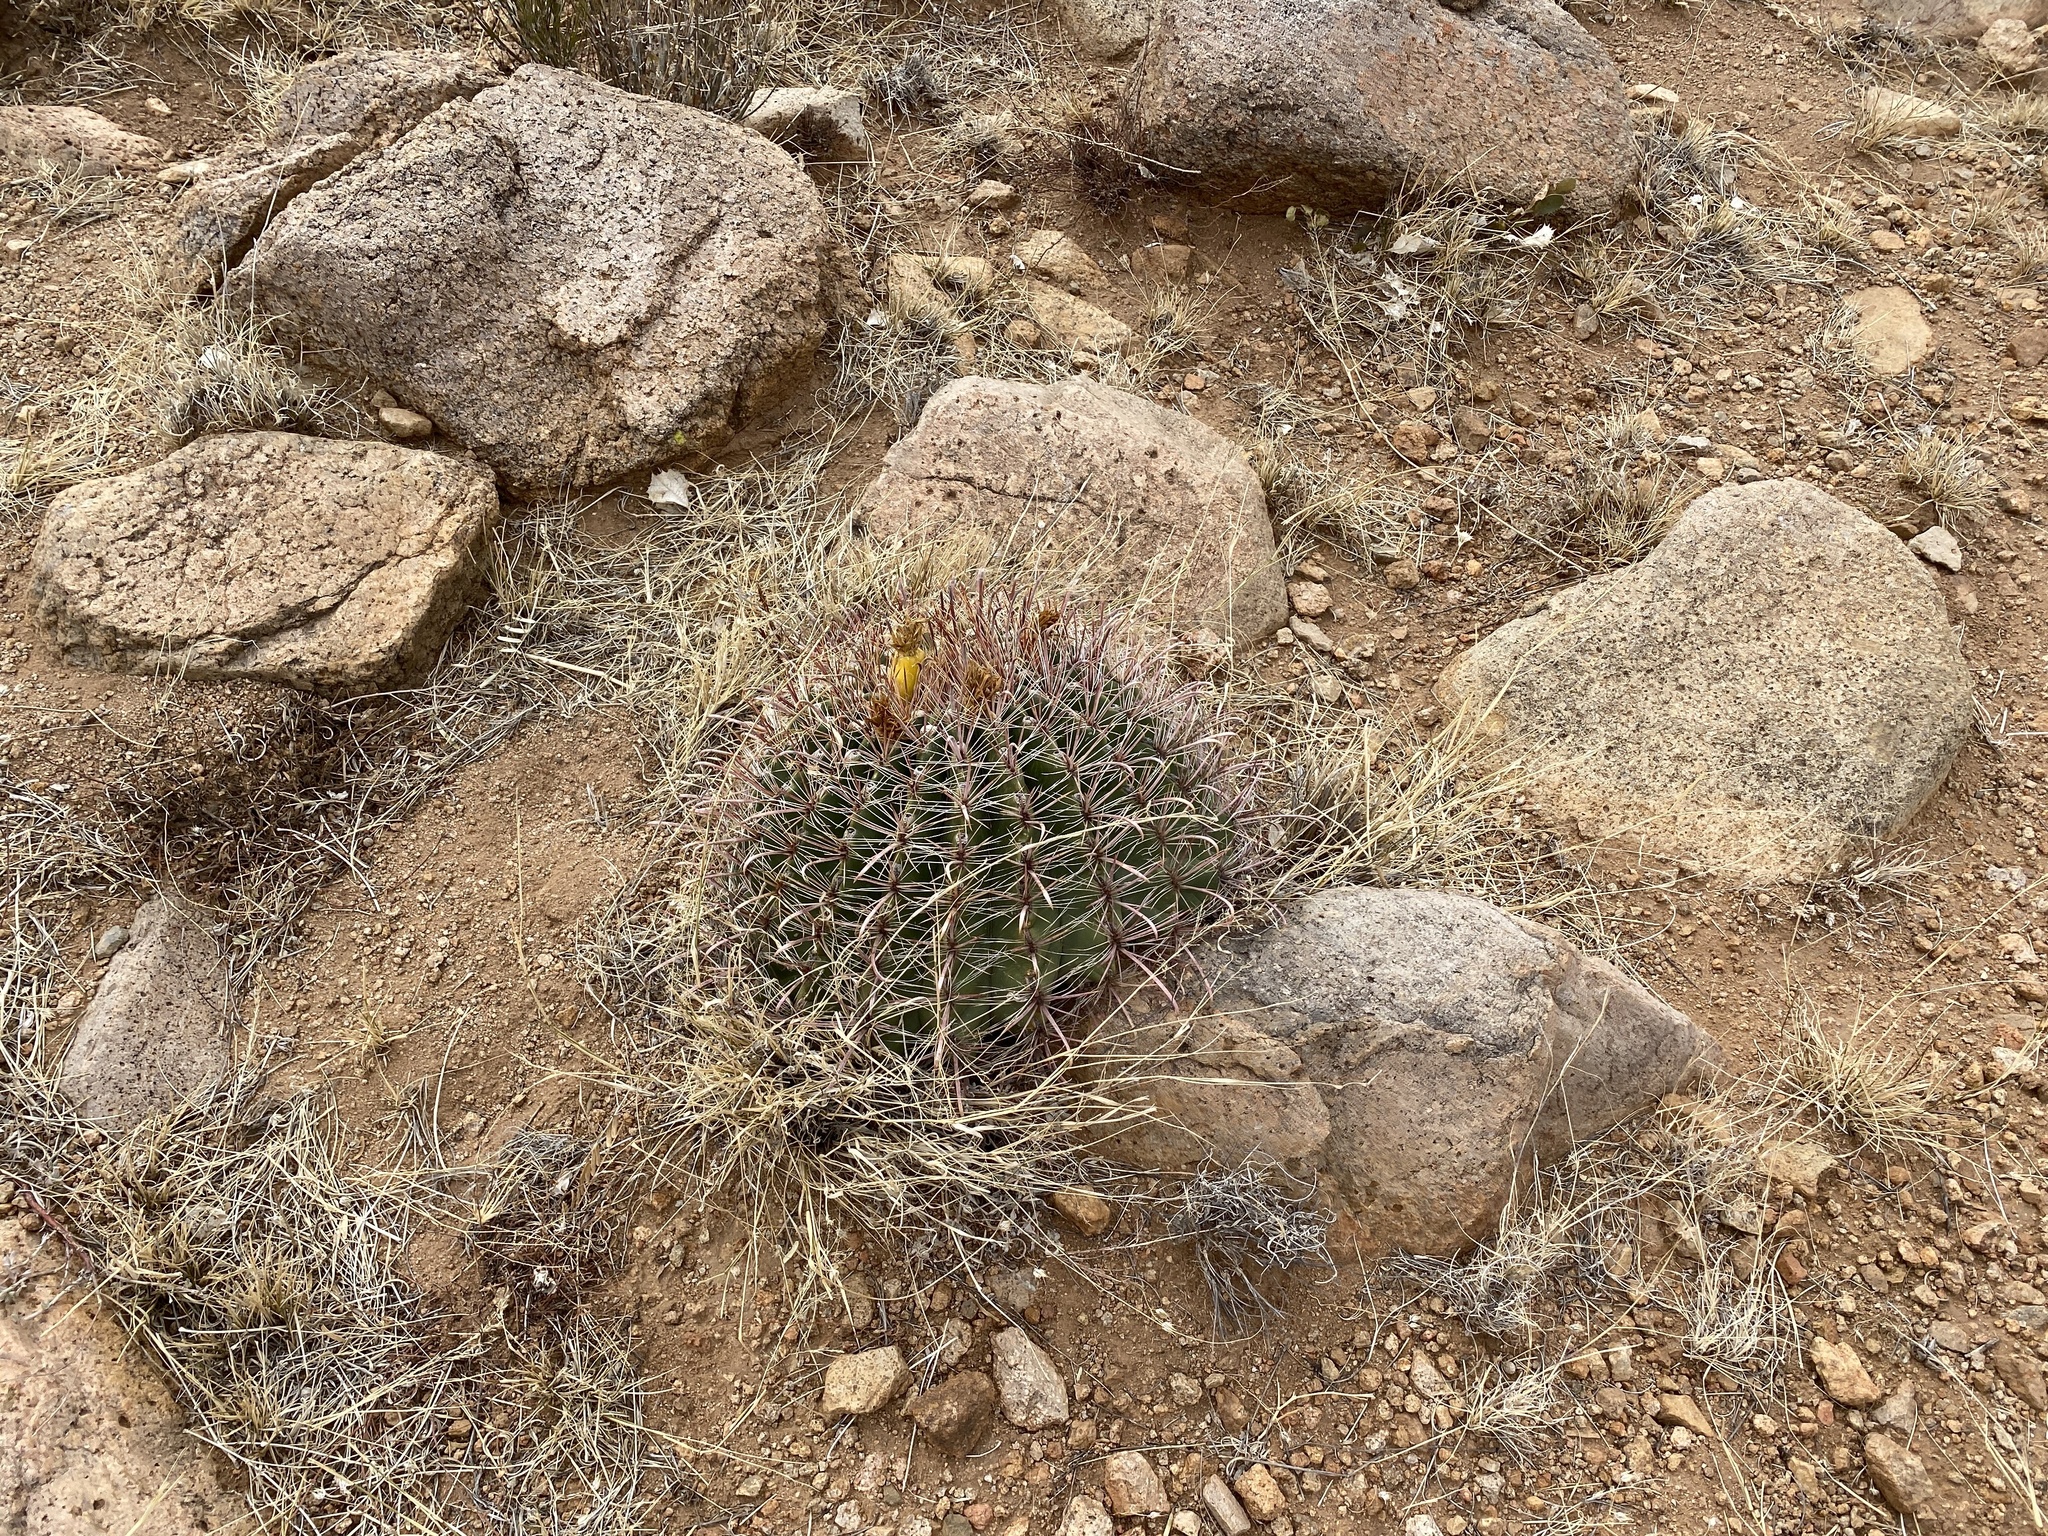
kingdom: Plantae
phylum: Tracheophyta
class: Magnoliopsida
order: Caryophyllales
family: Cactaceae
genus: Ferocactus
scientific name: Ferocactus wislizeni
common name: Candy barrel cactus
